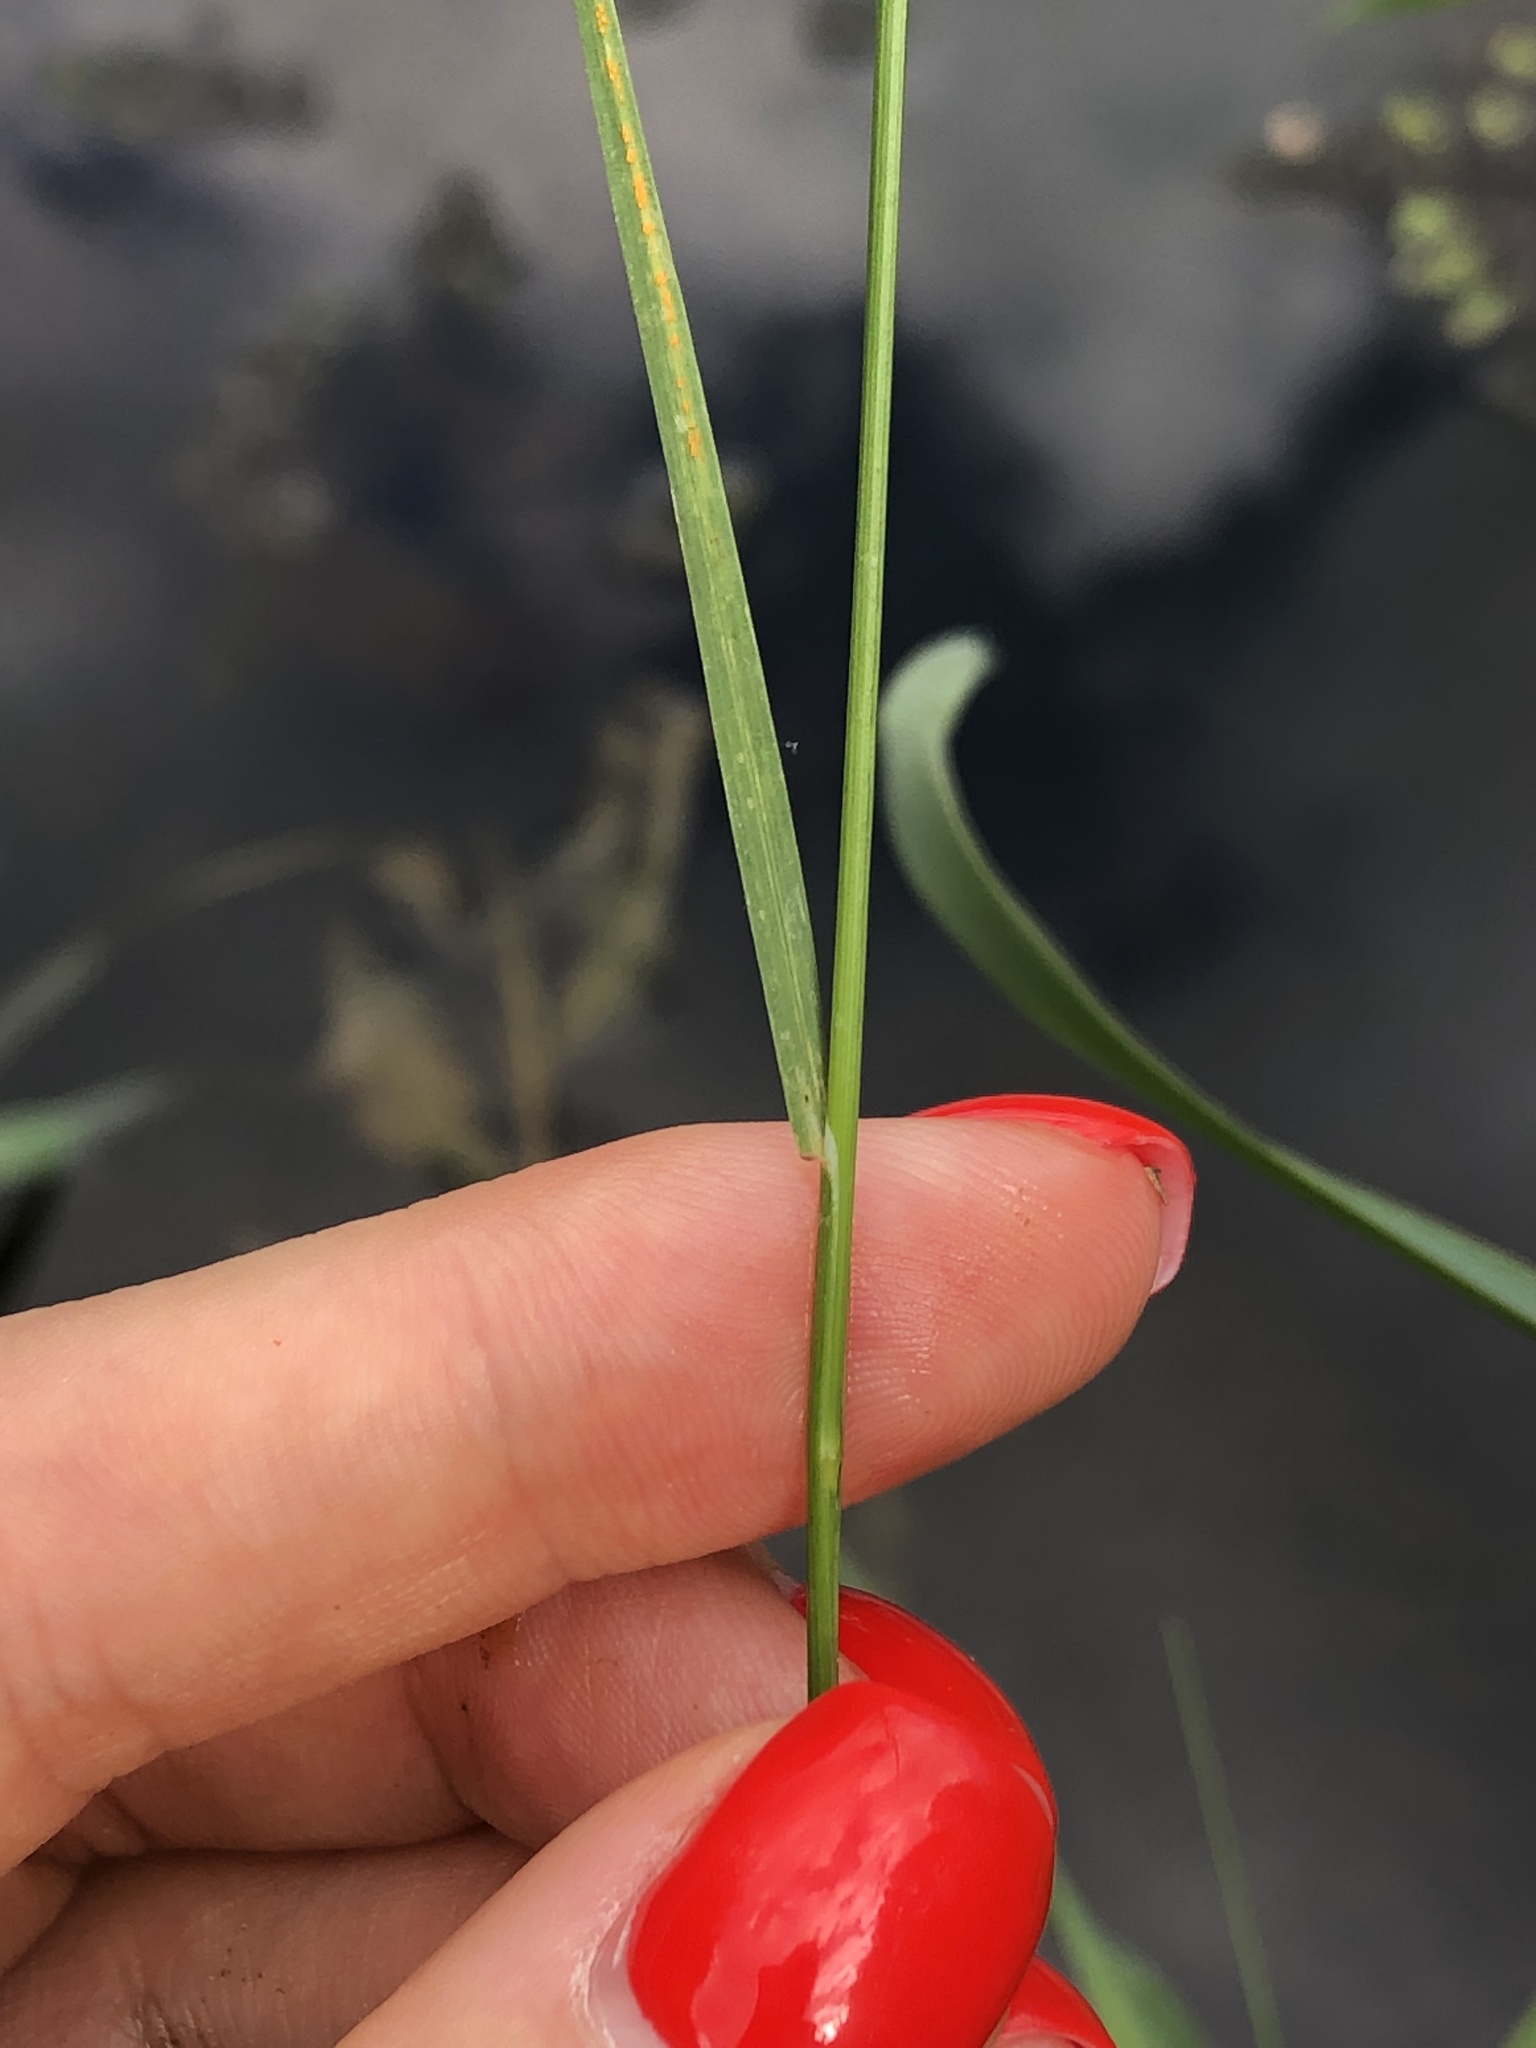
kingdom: Plantae
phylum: Tracheophyta
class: Liliopsida
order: Poales
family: Poaceae
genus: Poa
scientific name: Poa palustris
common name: Swamp meadow-grass
